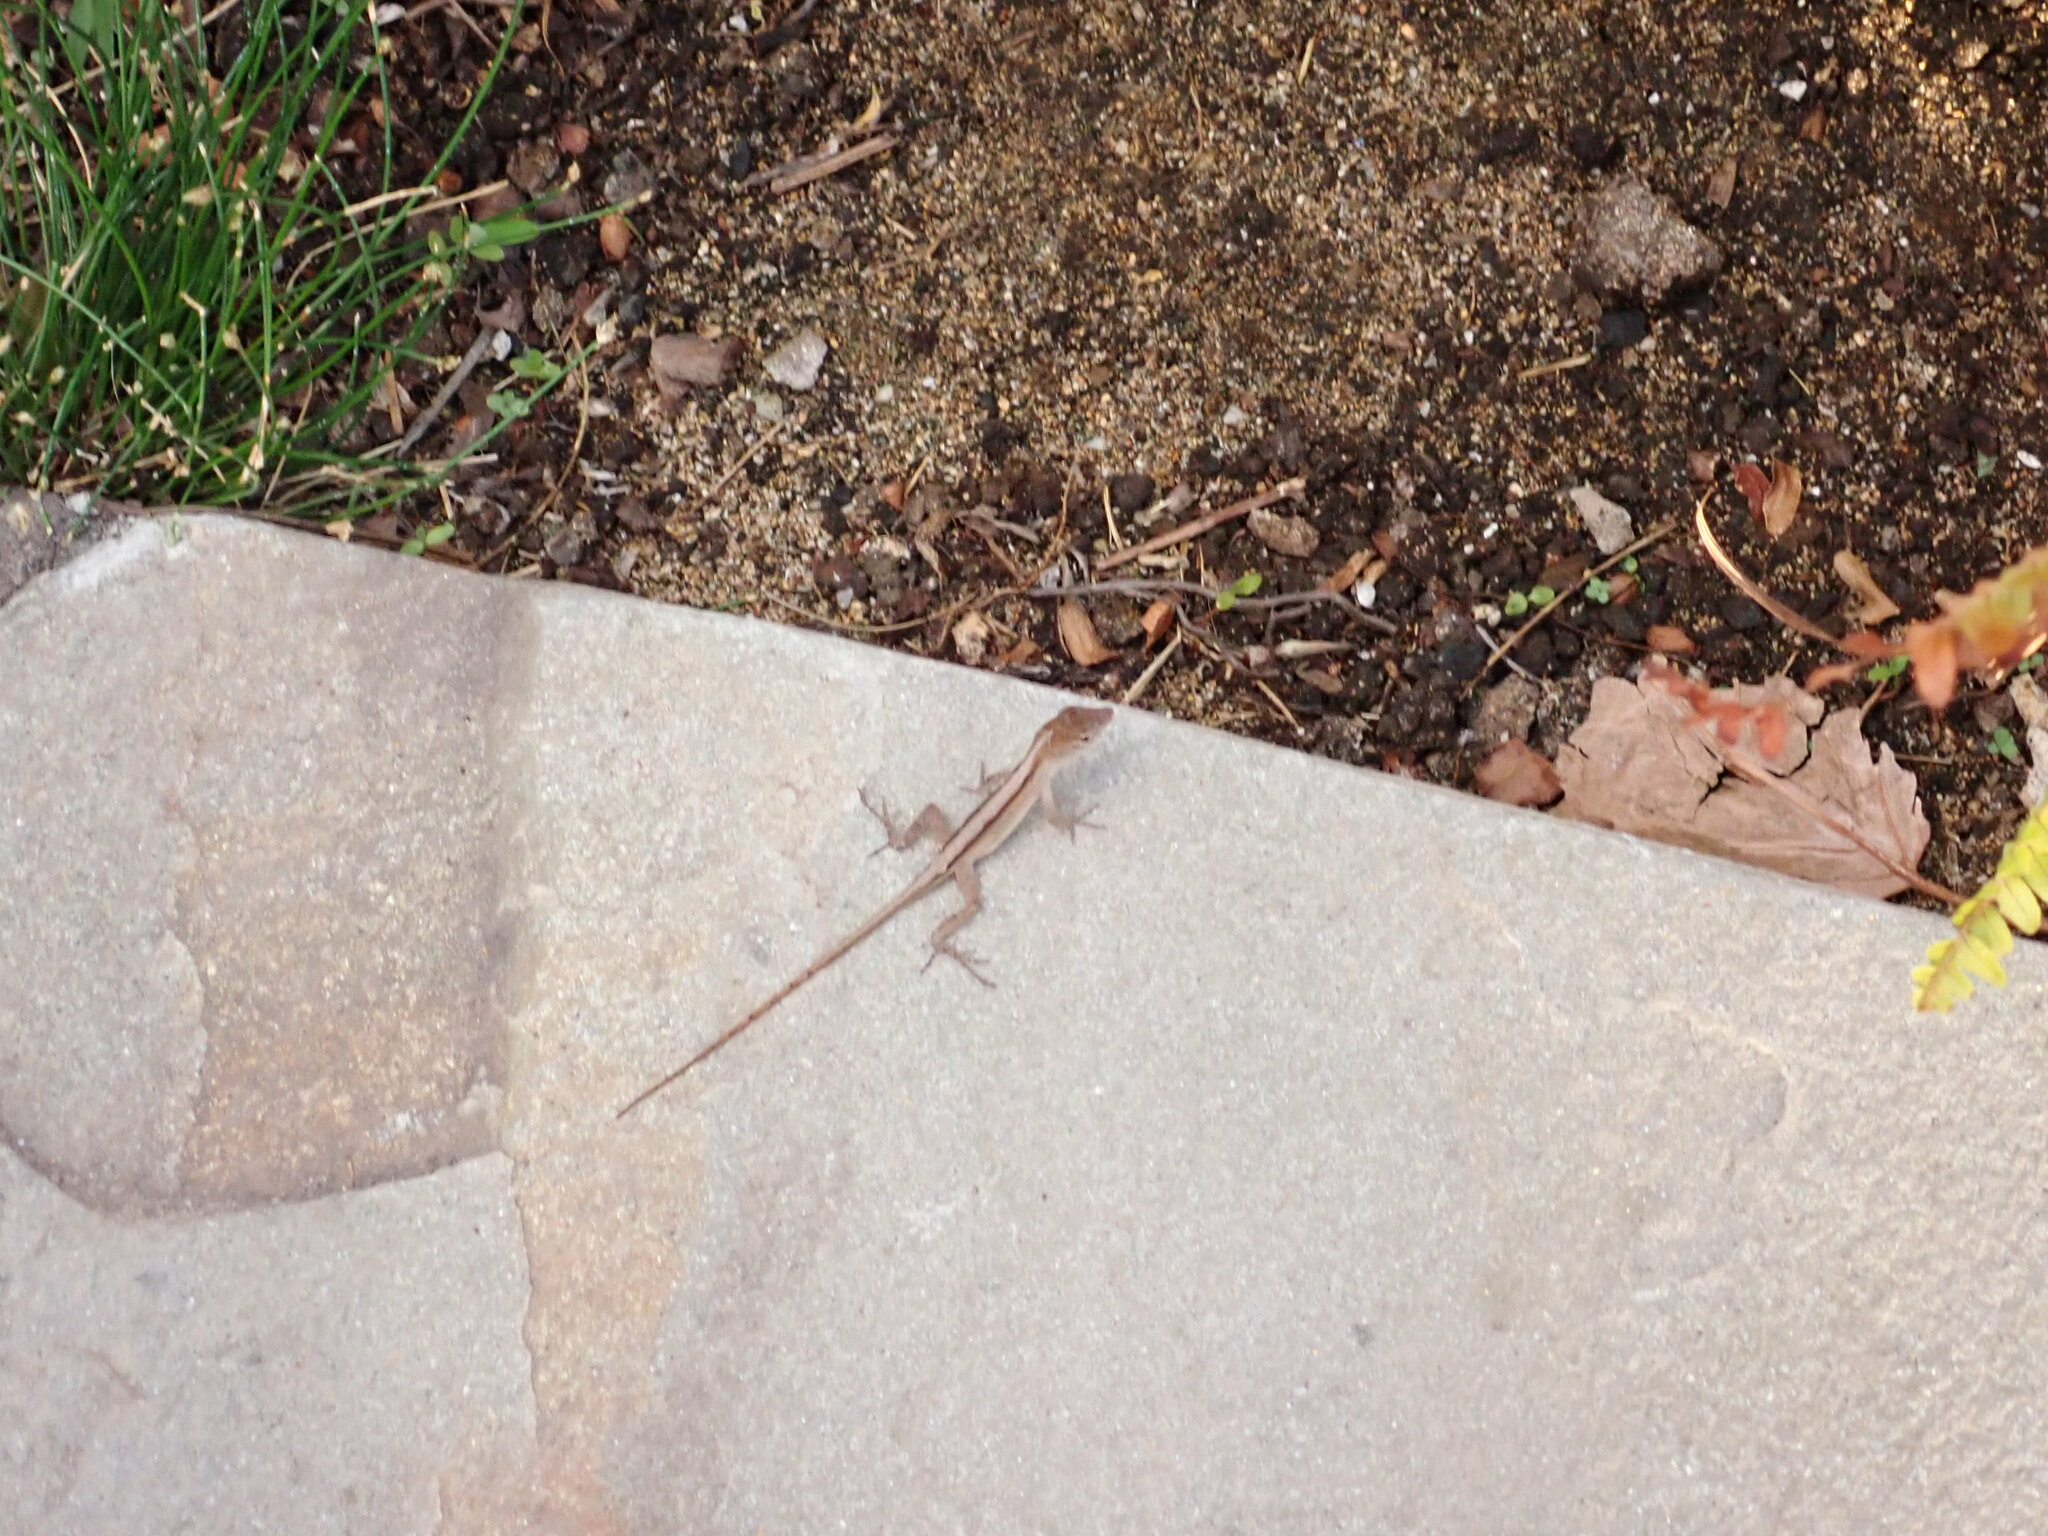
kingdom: Animalia
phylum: Chordata
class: Squamata
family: Dactyloidae
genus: Anolis
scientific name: Anolis sagrei
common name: Brown anole
